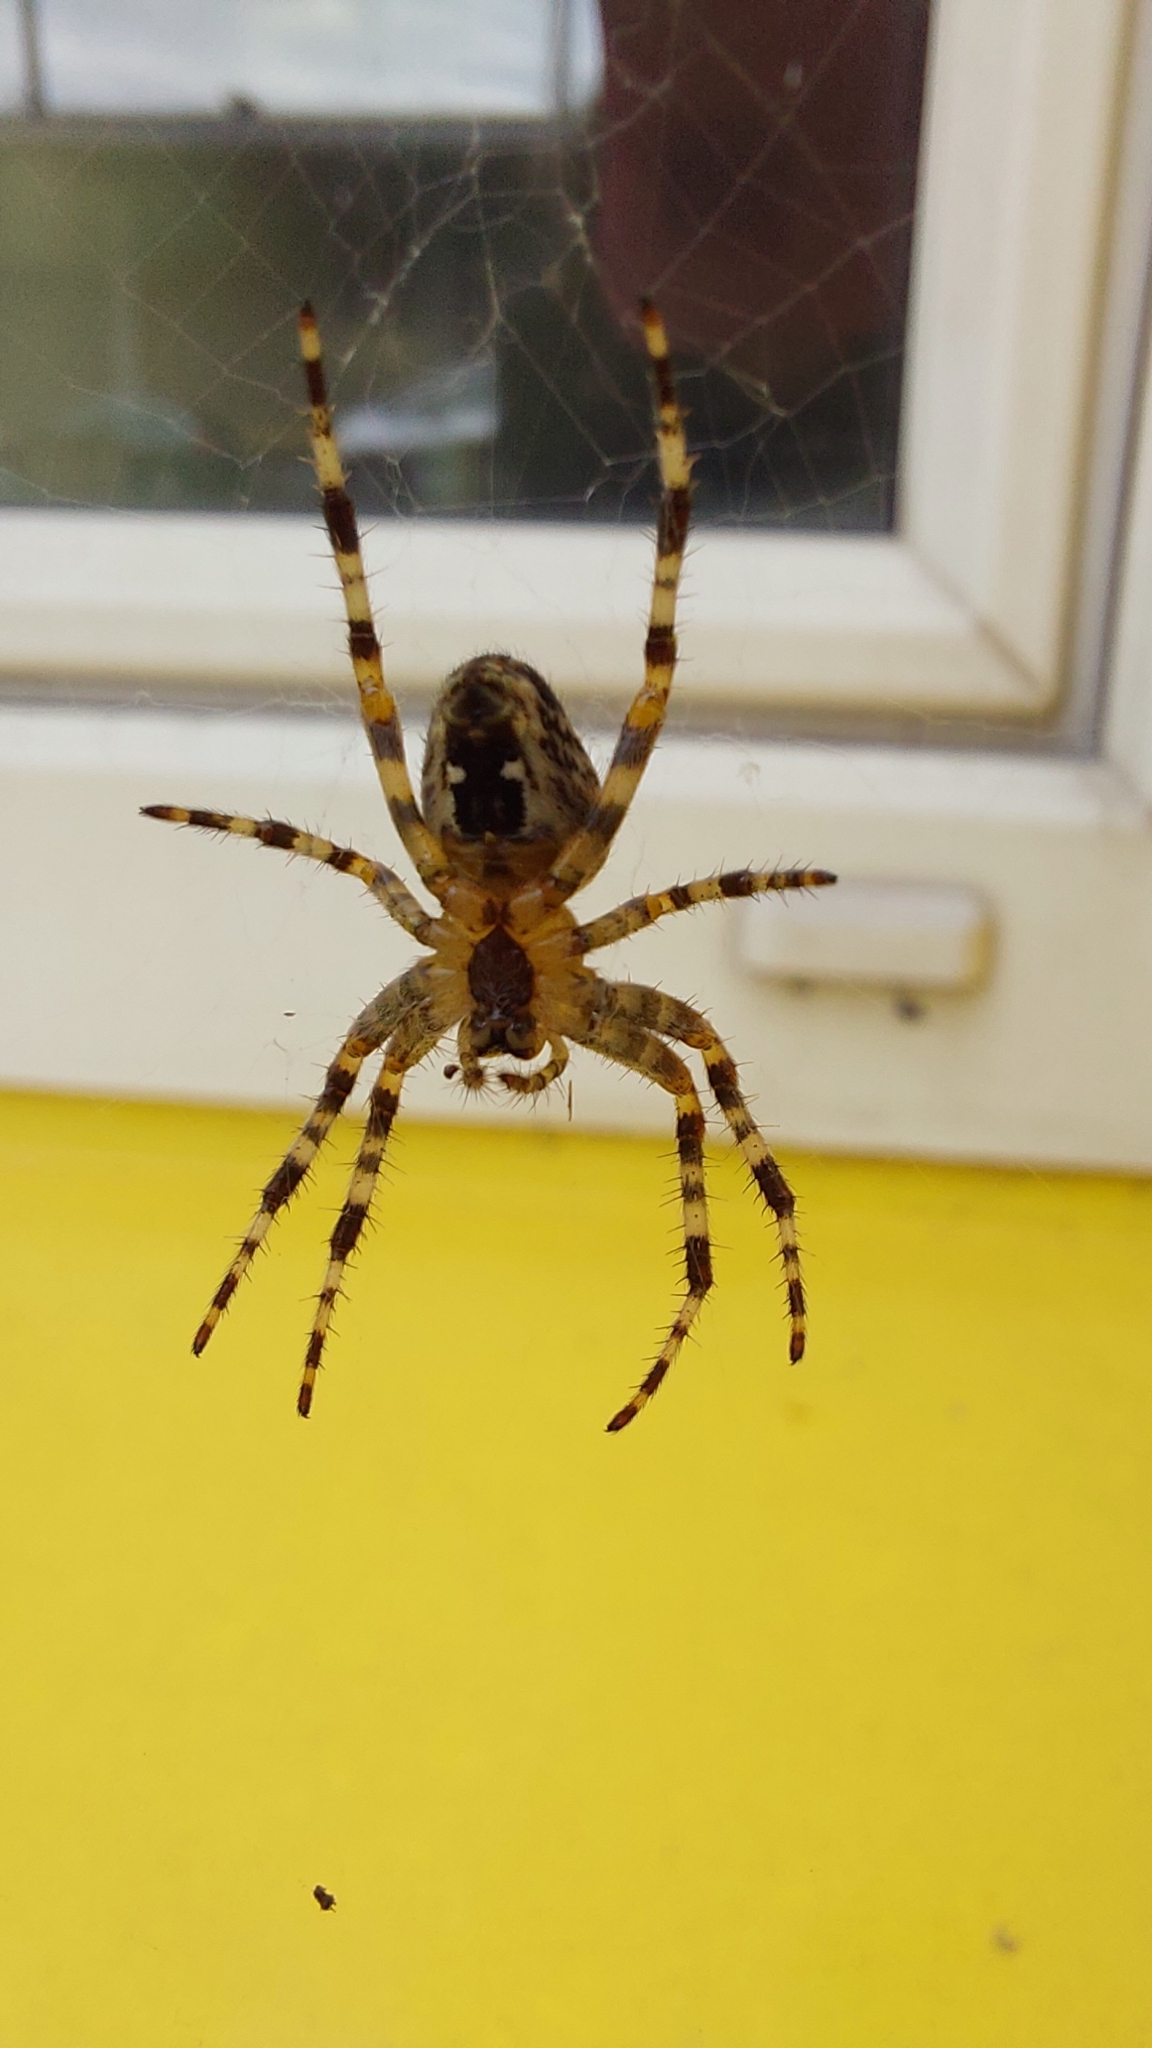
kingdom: Animalia
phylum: Arthropoda
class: Arachnida
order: Araneae
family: Araneidae
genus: Araneus
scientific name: Araneus diadematus
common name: Cross orbweaver
